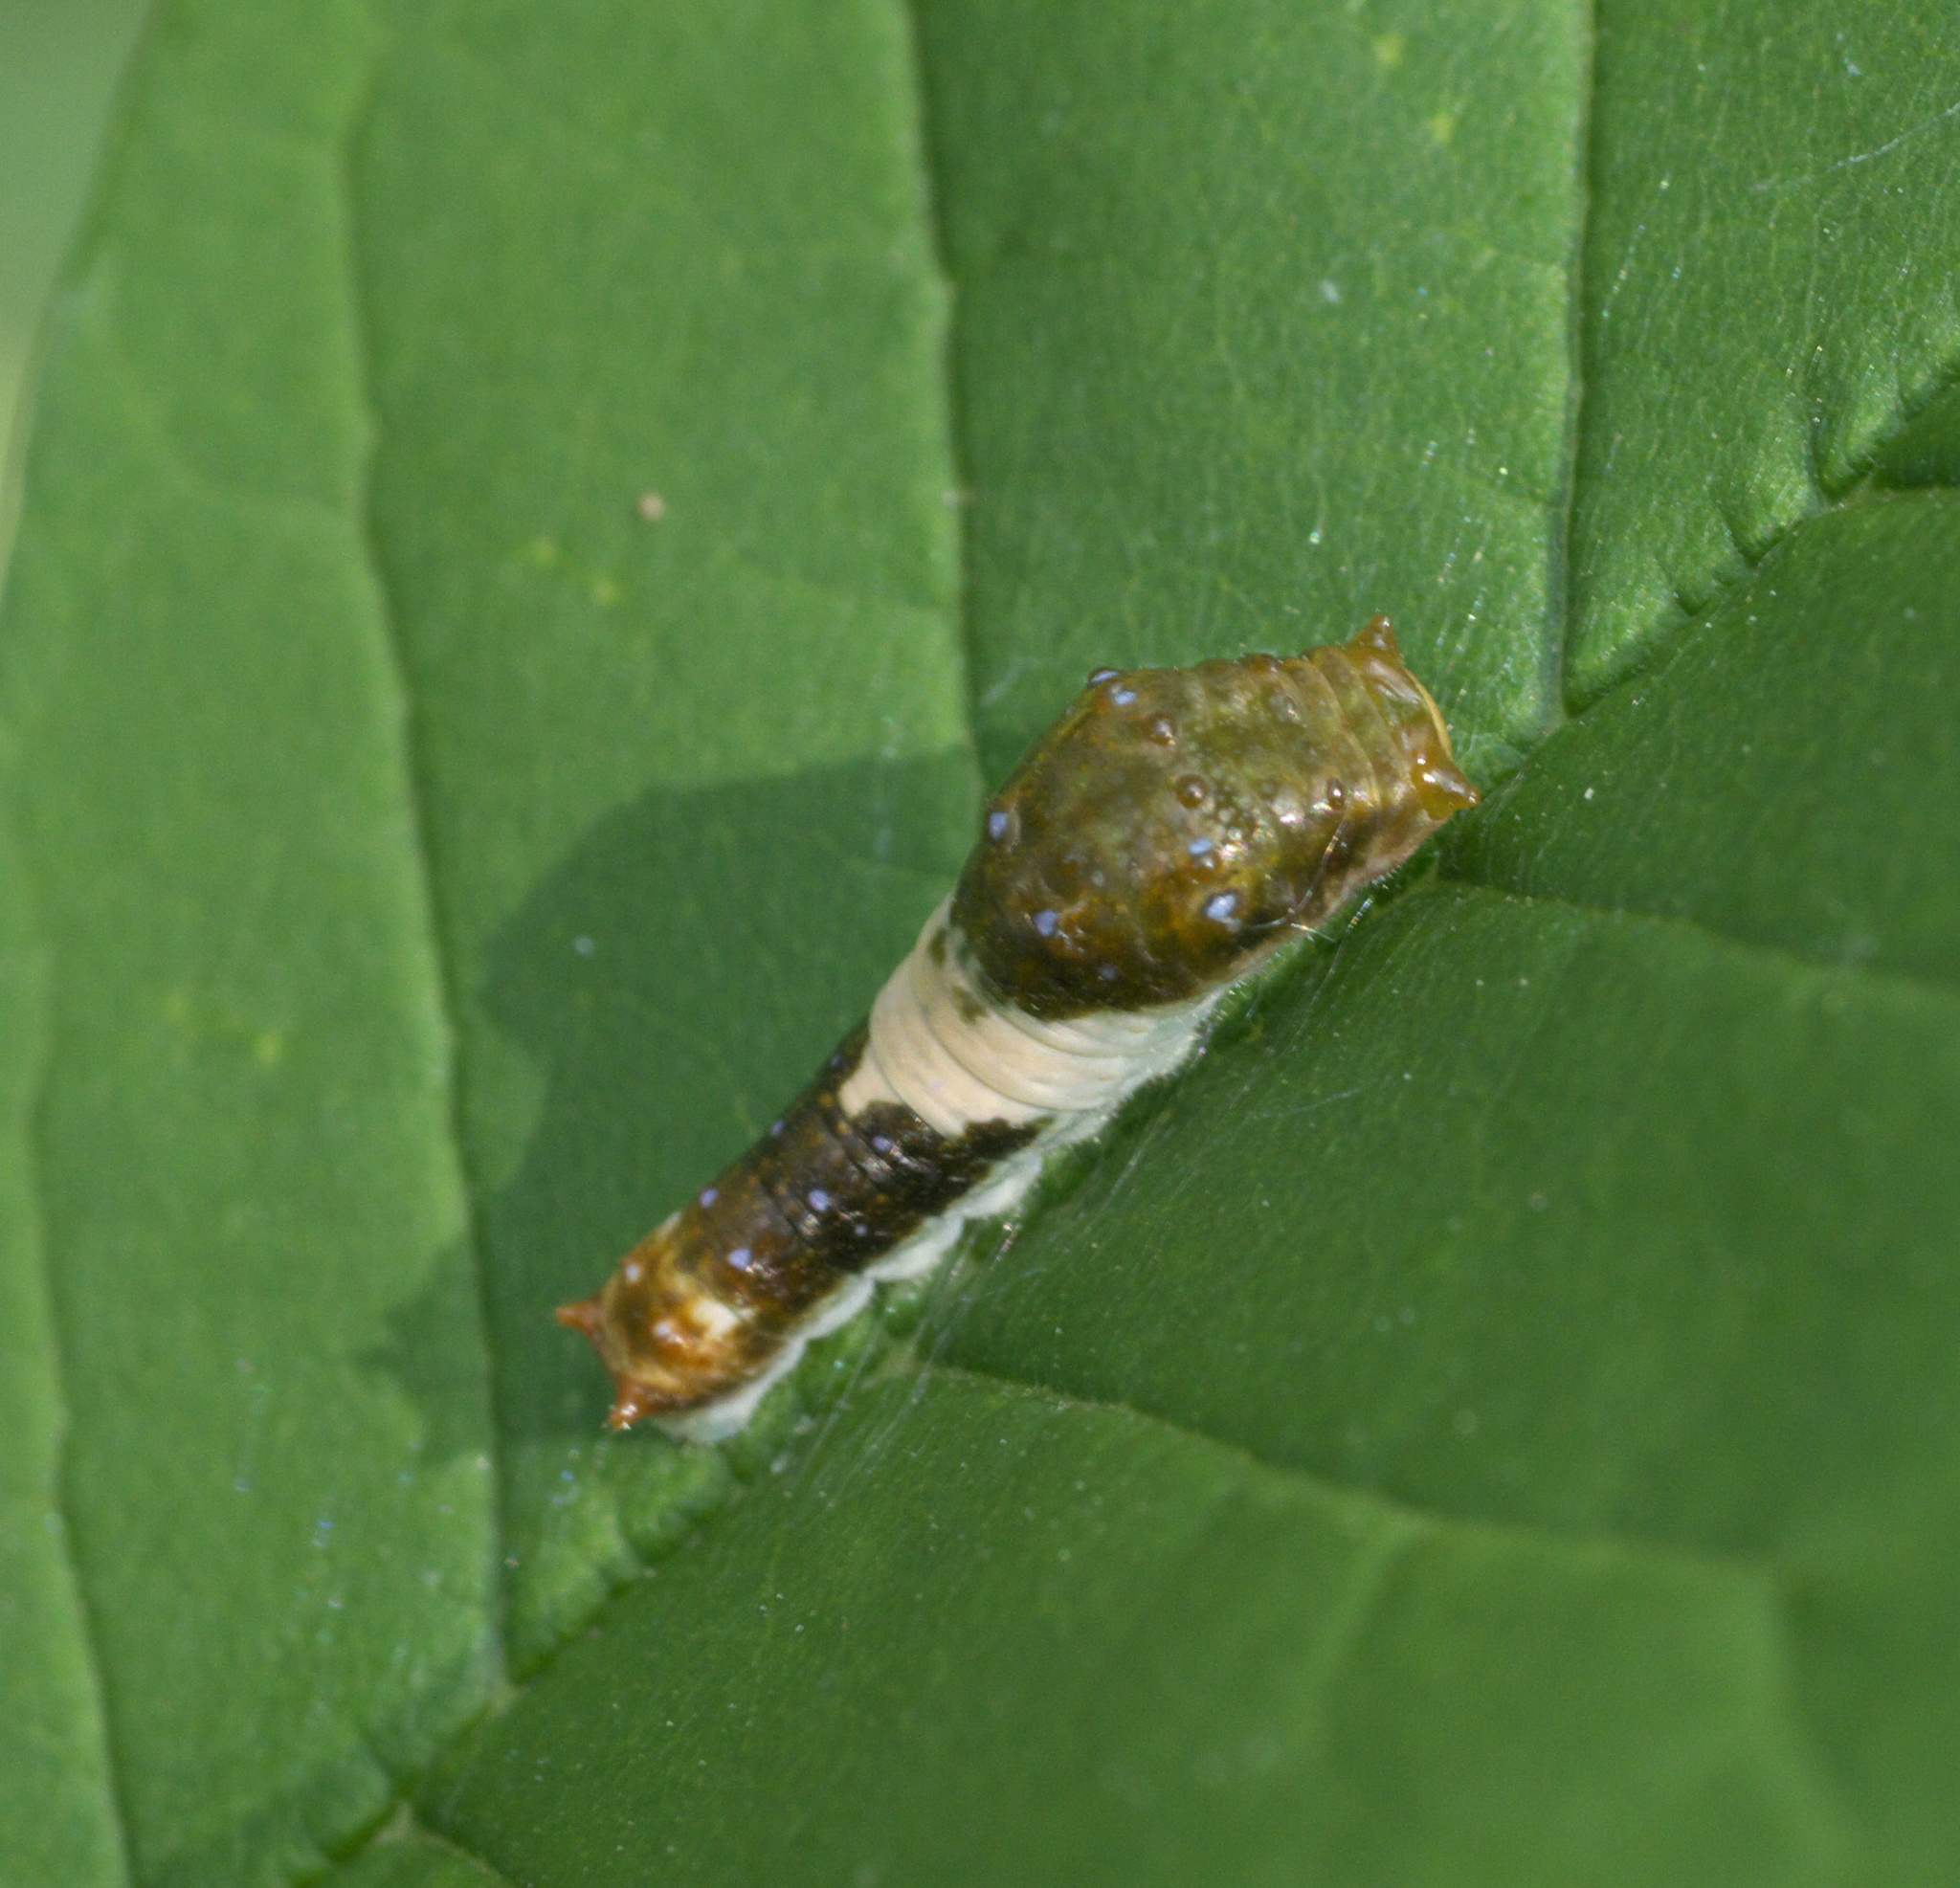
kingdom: Animalia
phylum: Arthropoda
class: Insecta
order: Lepidoptera
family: Papilionidae
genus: Papilio
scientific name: Papilio glaucus
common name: Tiger swallowtail
